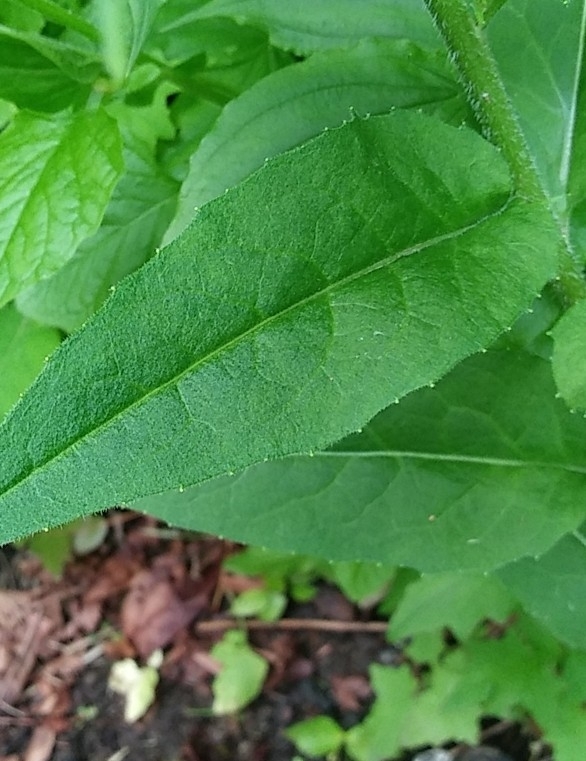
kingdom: Plantae
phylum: Tracheophyta
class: Magnoliopsida
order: Brassicales
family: Brassicaceae
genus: Hesperis
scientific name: Hesperis matronalis
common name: Dame's-violet
